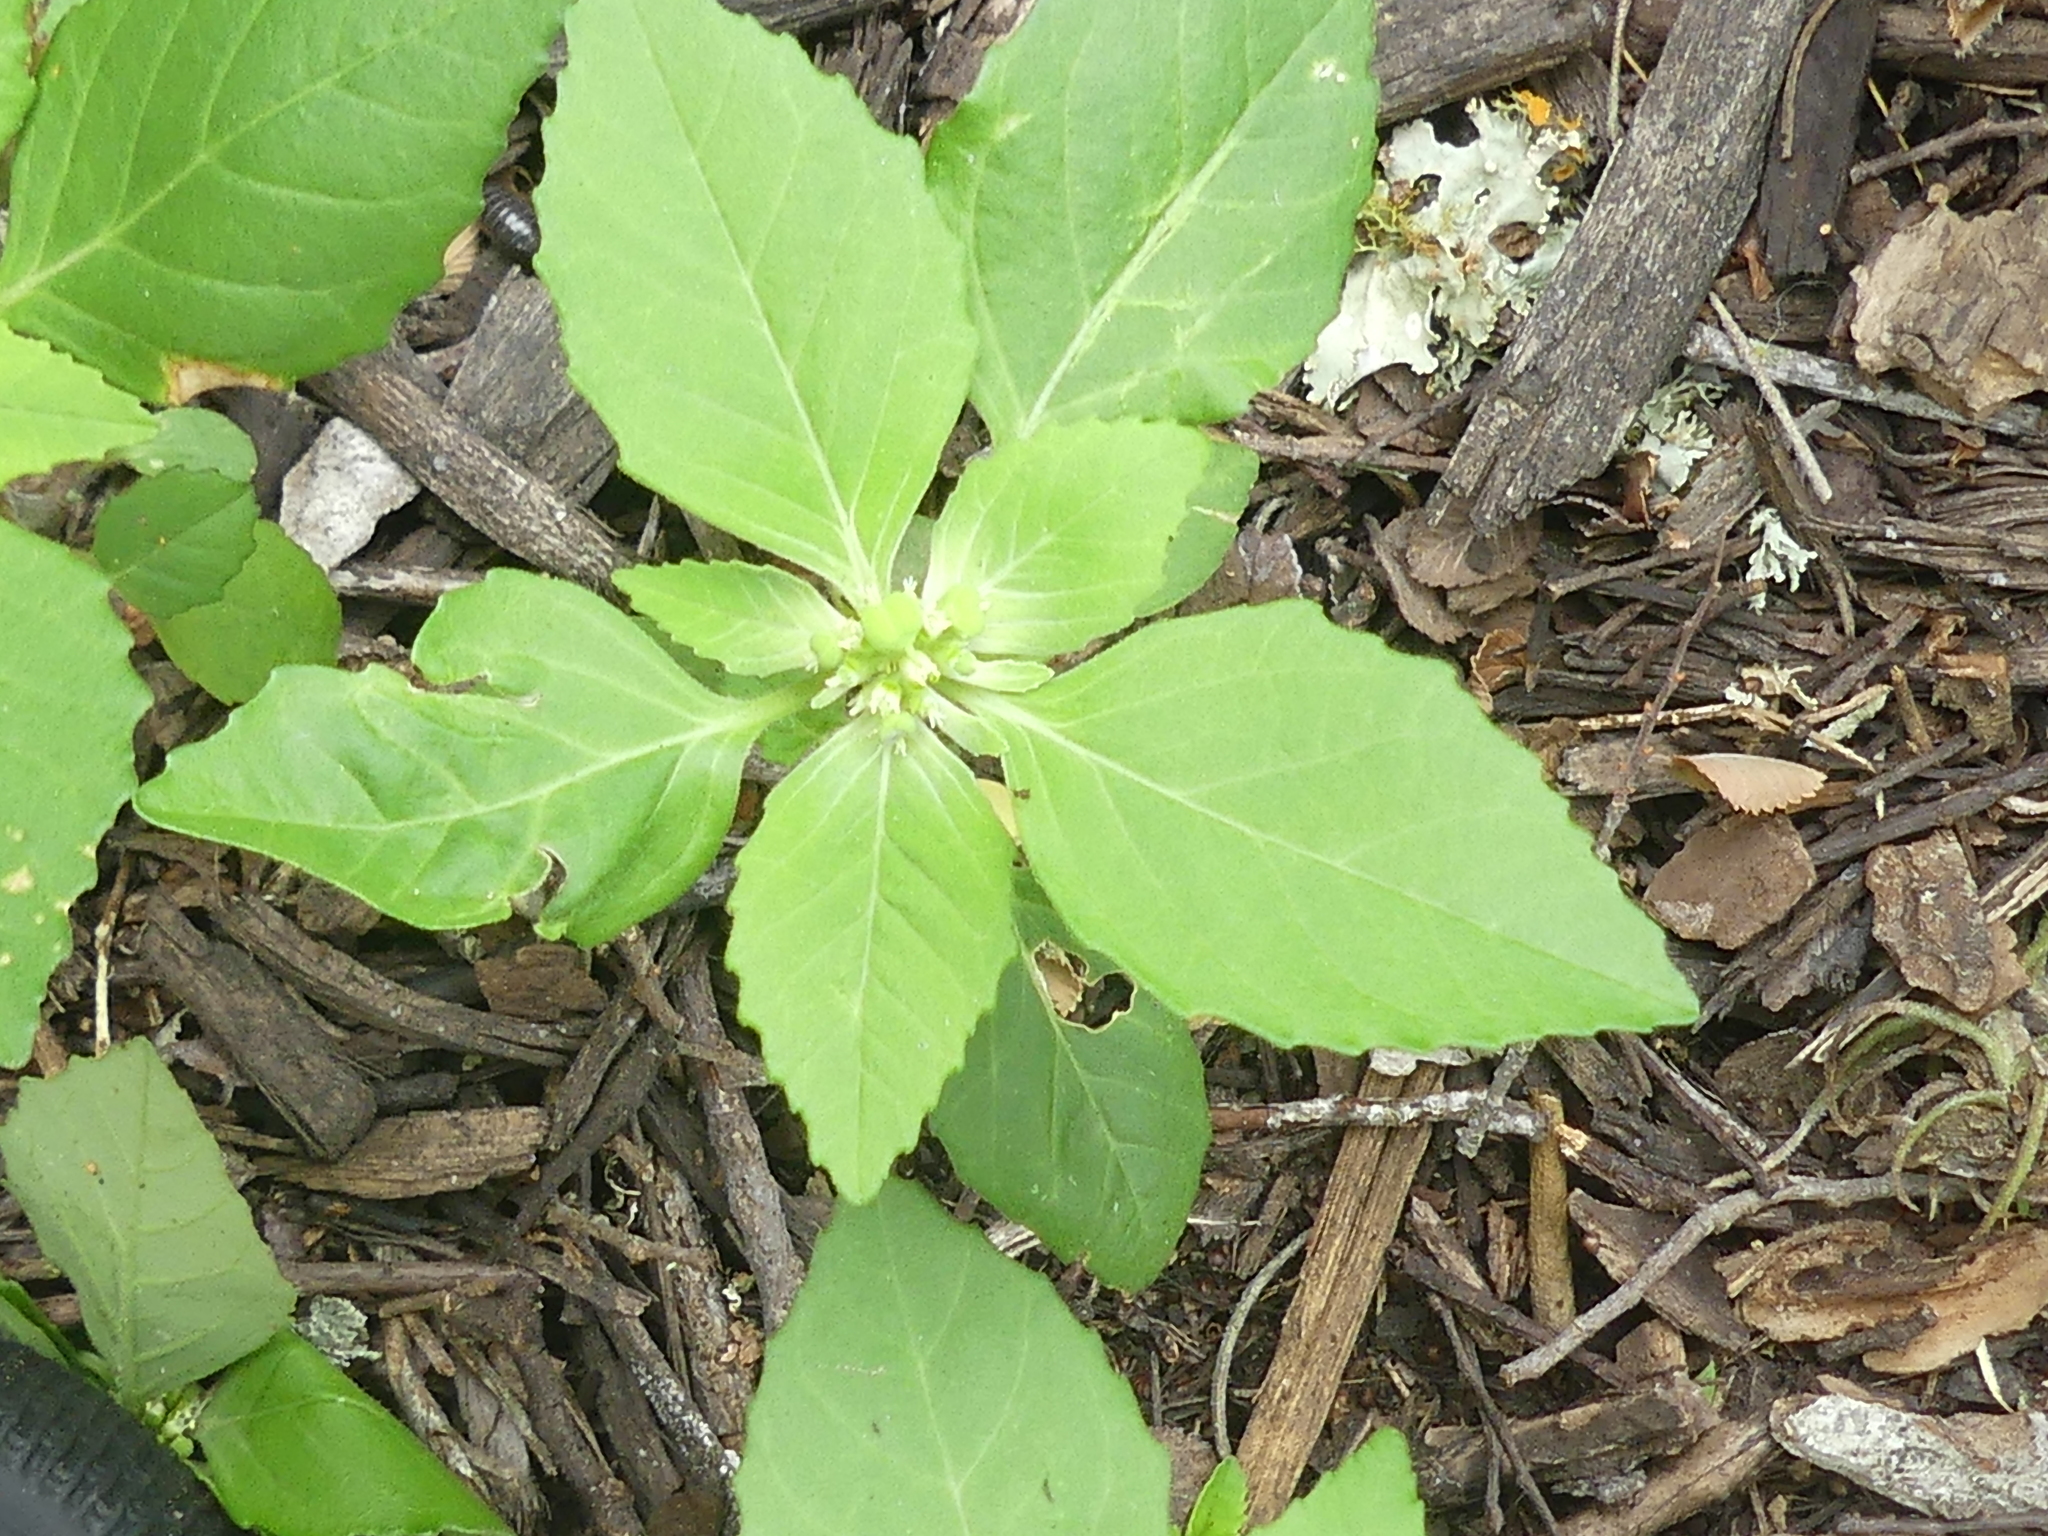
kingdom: Plantae
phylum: Tracheophyta
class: Magnoliopsida
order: Malpighiales
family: Euphorbiaceae
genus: Euphorbia
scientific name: Euphorbia dentata
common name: Dentate spurge
